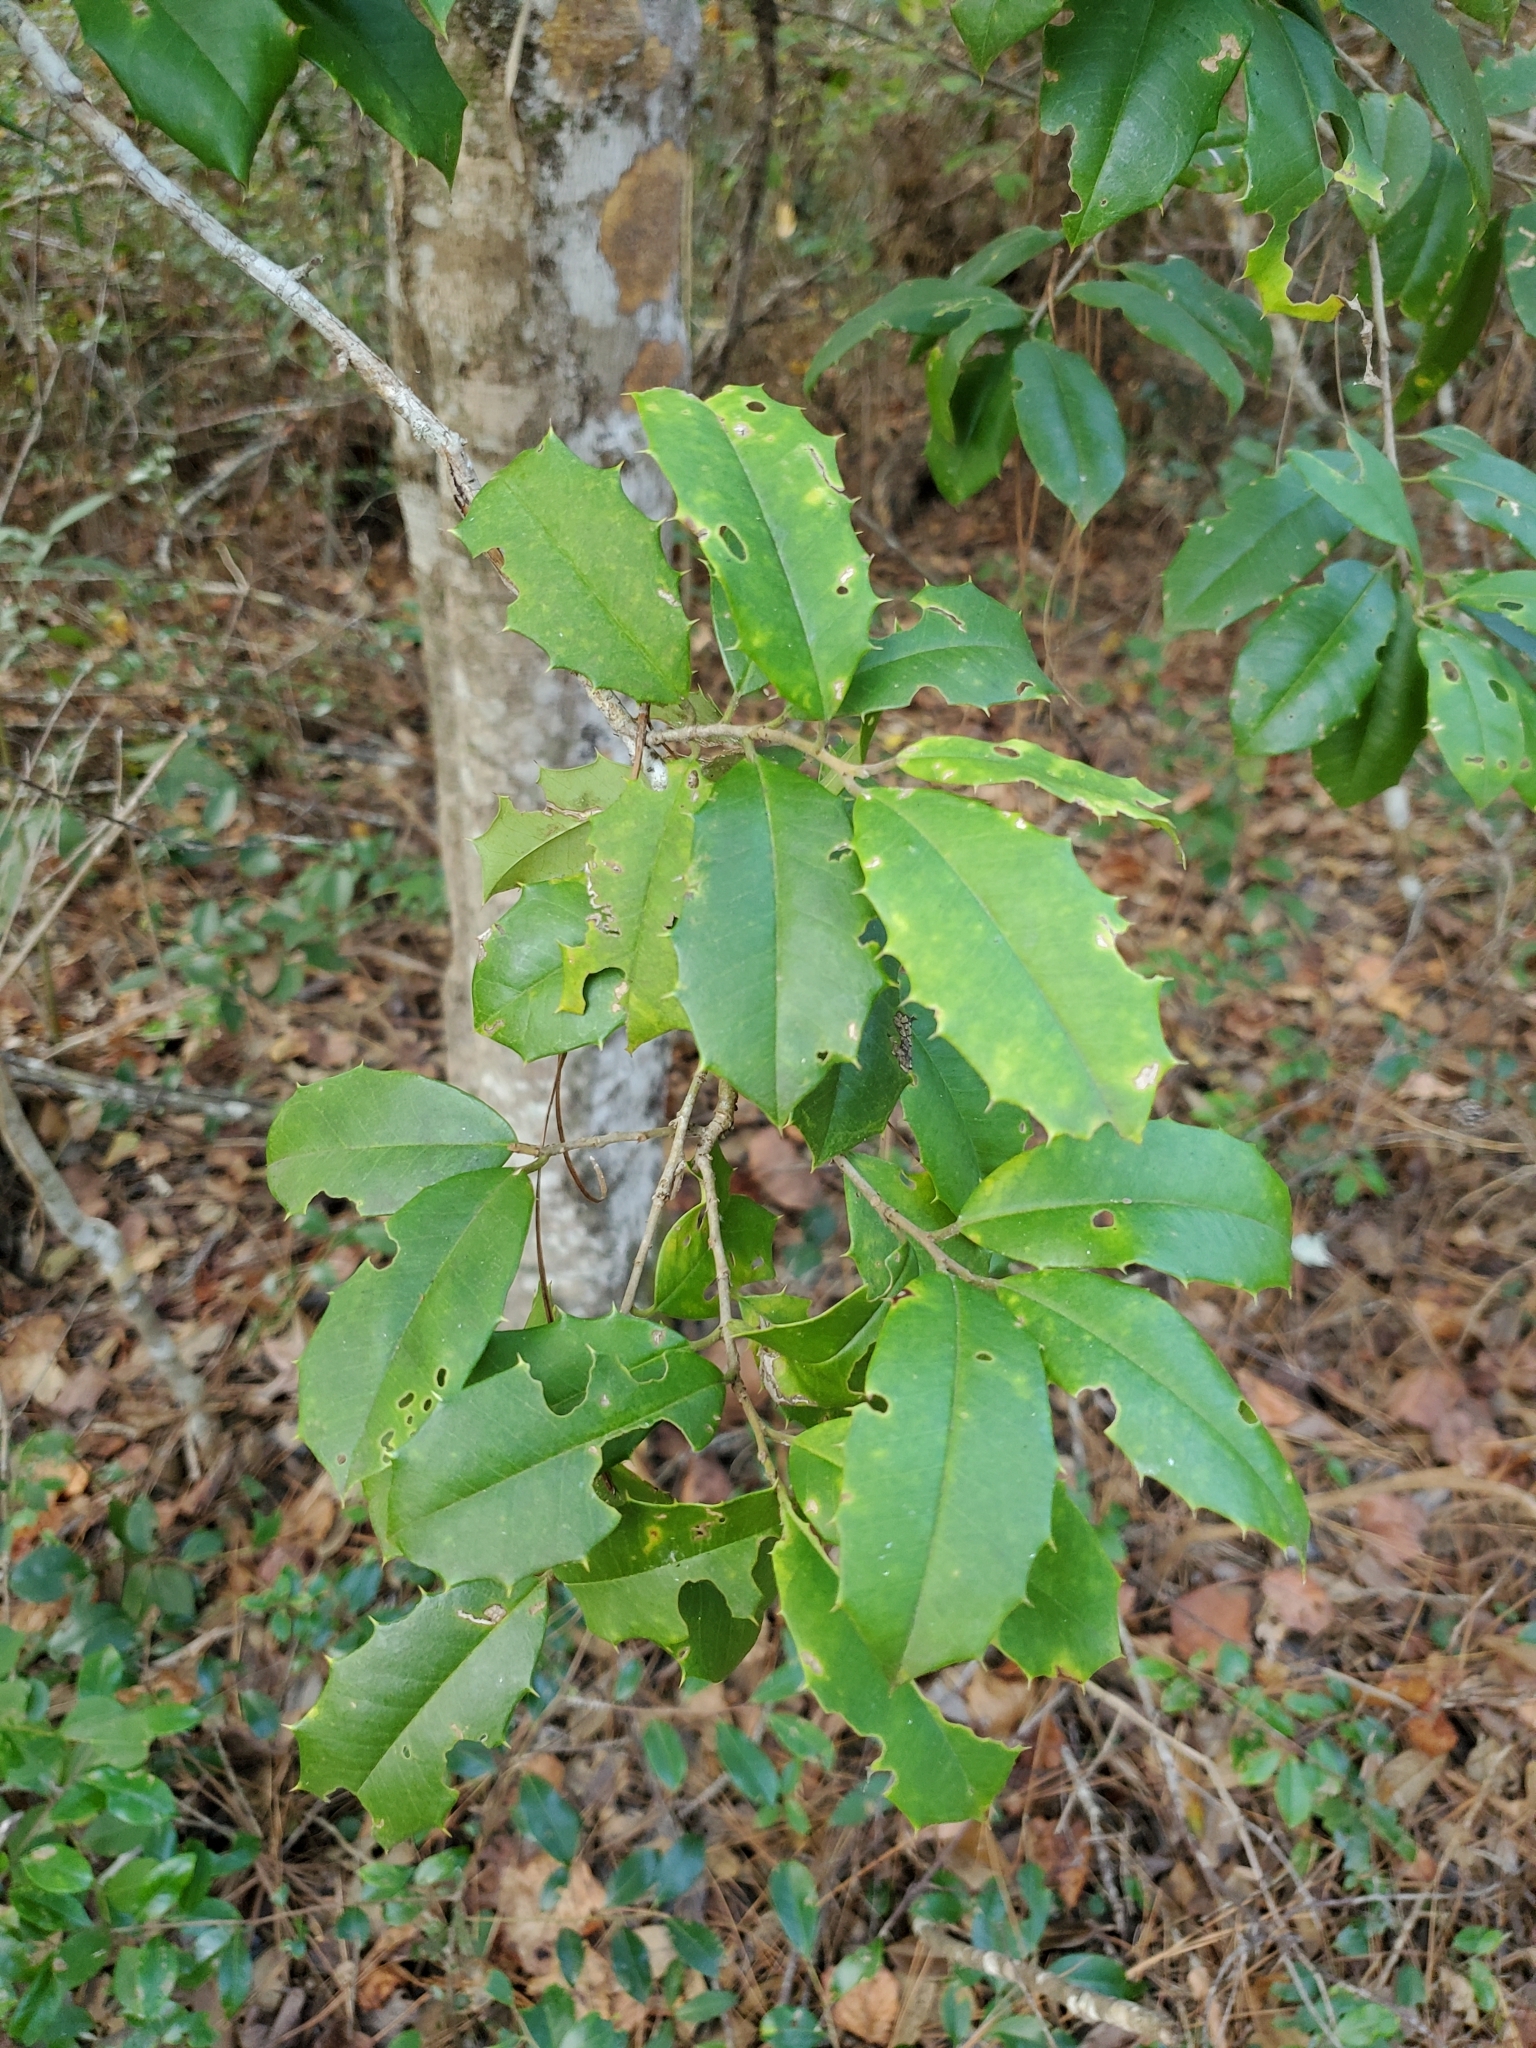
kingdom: Plantae
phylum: Tracheophyta
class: Magnoliopsida
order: Aquifoliales
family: Aquifoliaceae
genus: Ilex
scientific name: Ilex opaca
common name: American holly
